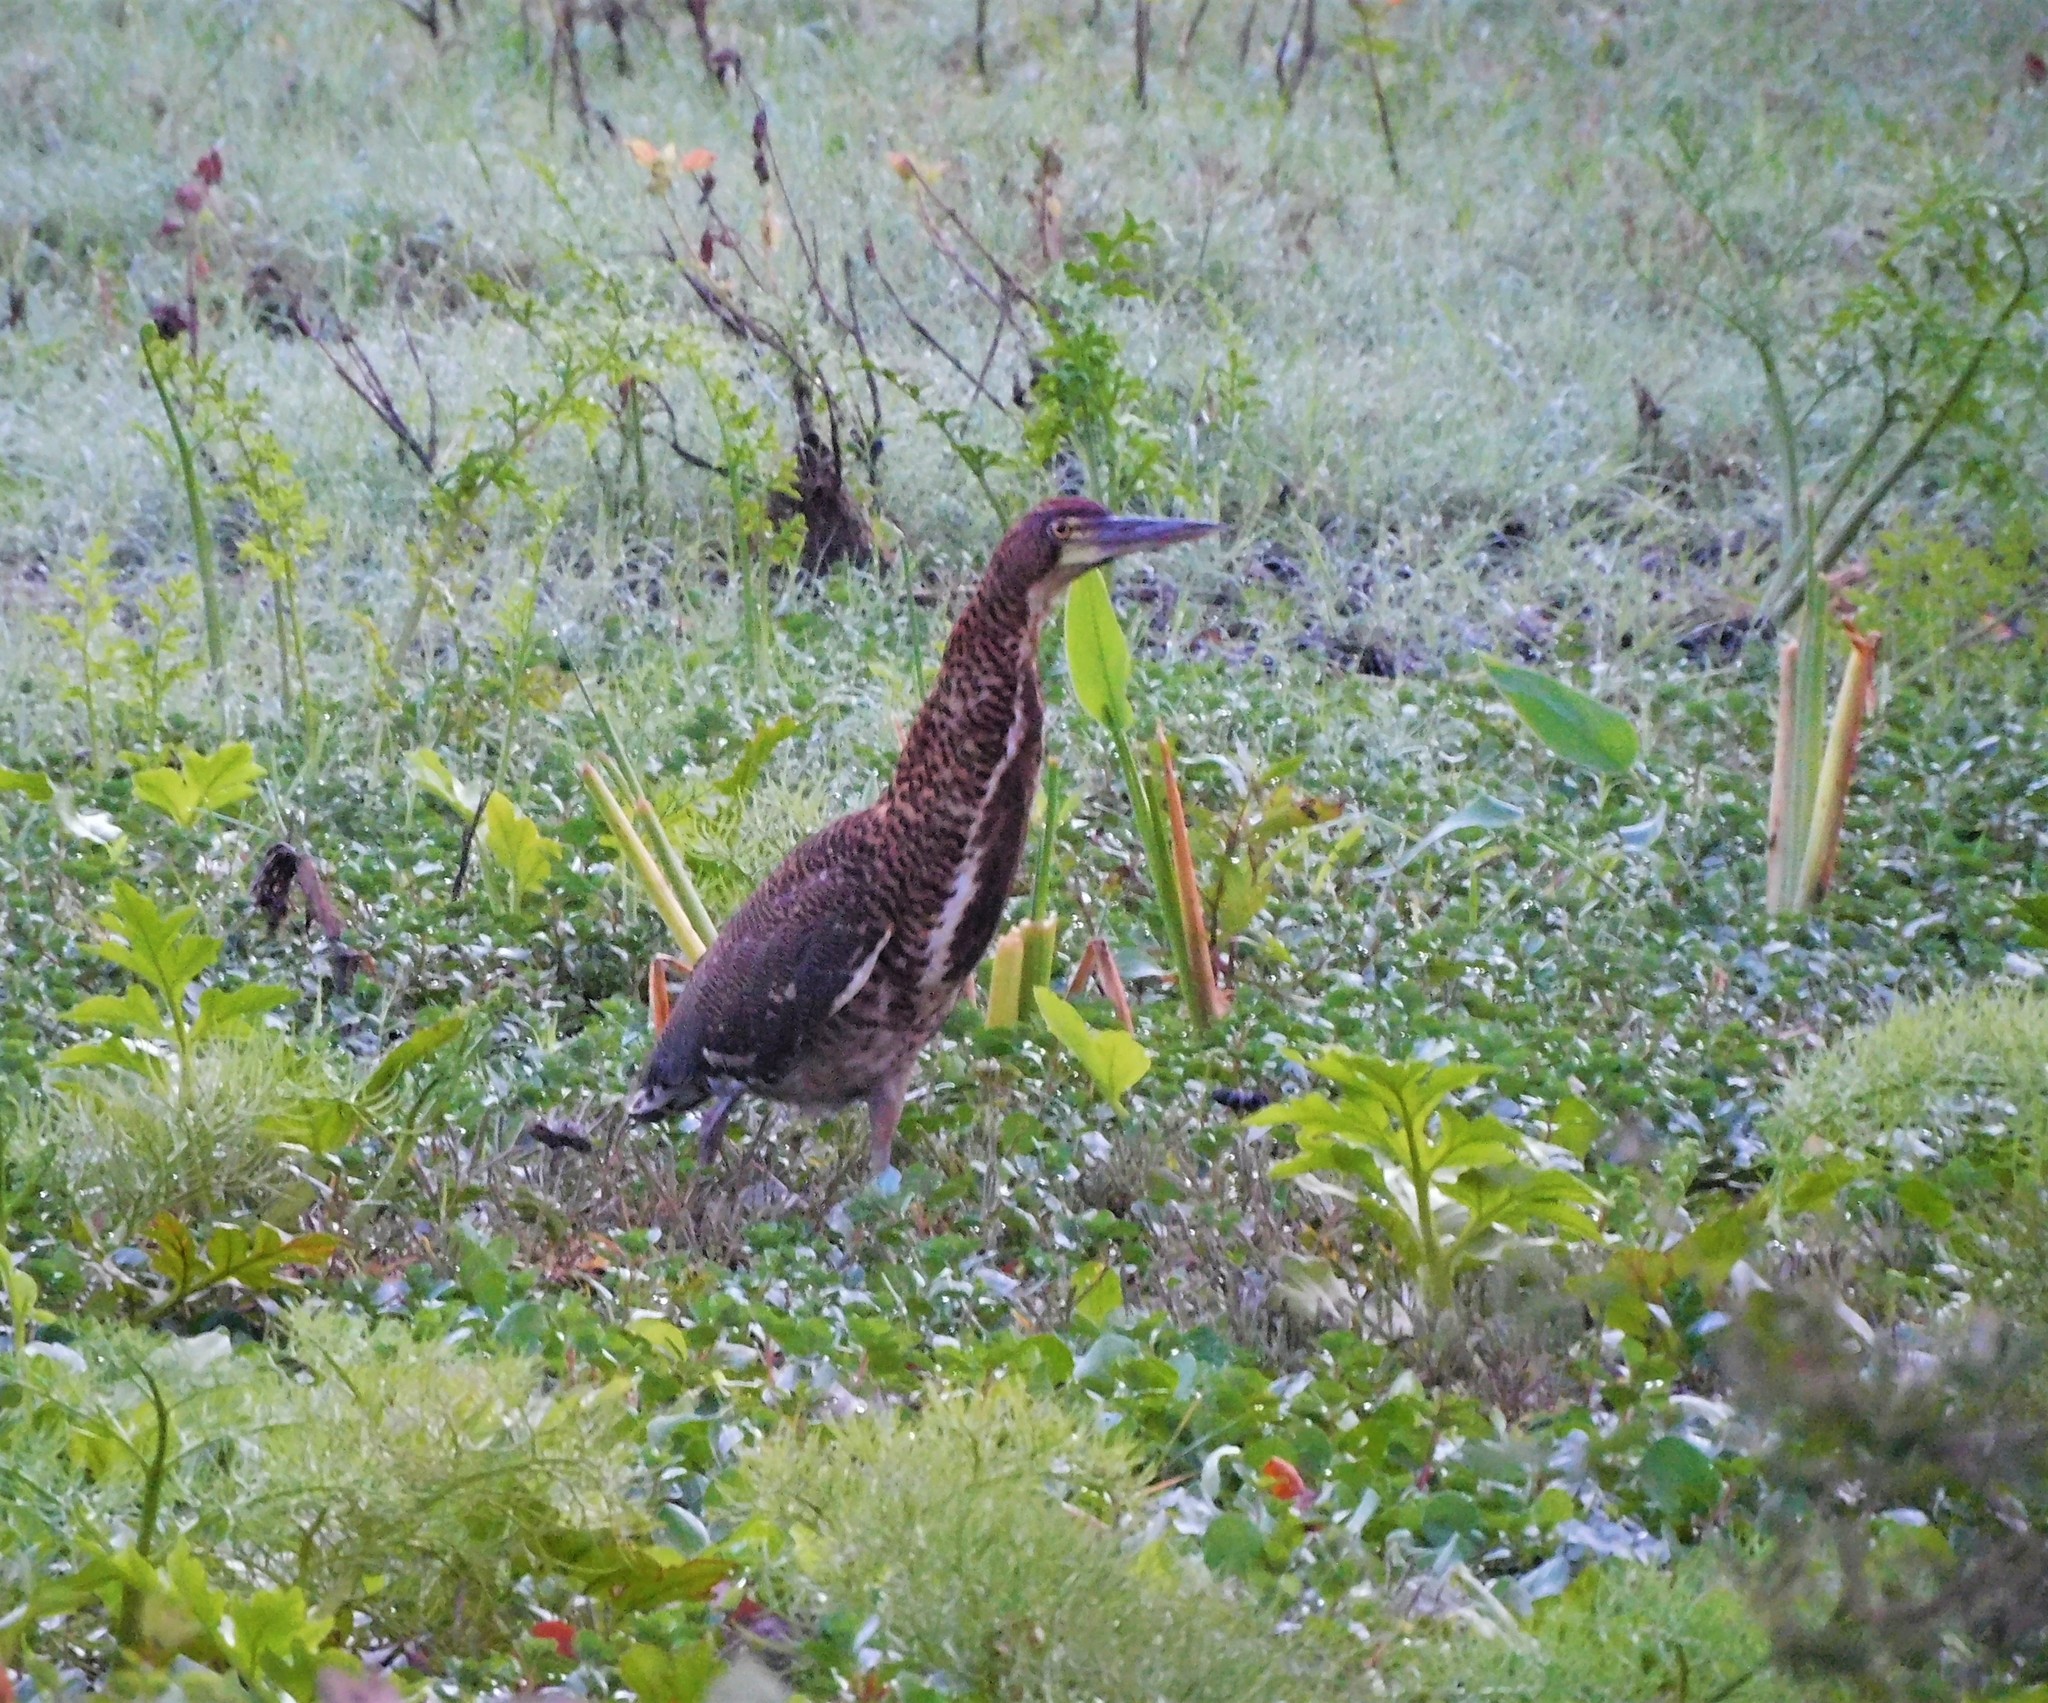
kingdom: Animalia
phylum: Chordata
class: Aves
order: Pelecaniformes
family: Ardeidae
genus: Tigrisoma
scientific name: Tigrisoma lineatum
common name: Rufescent tiger-heron
